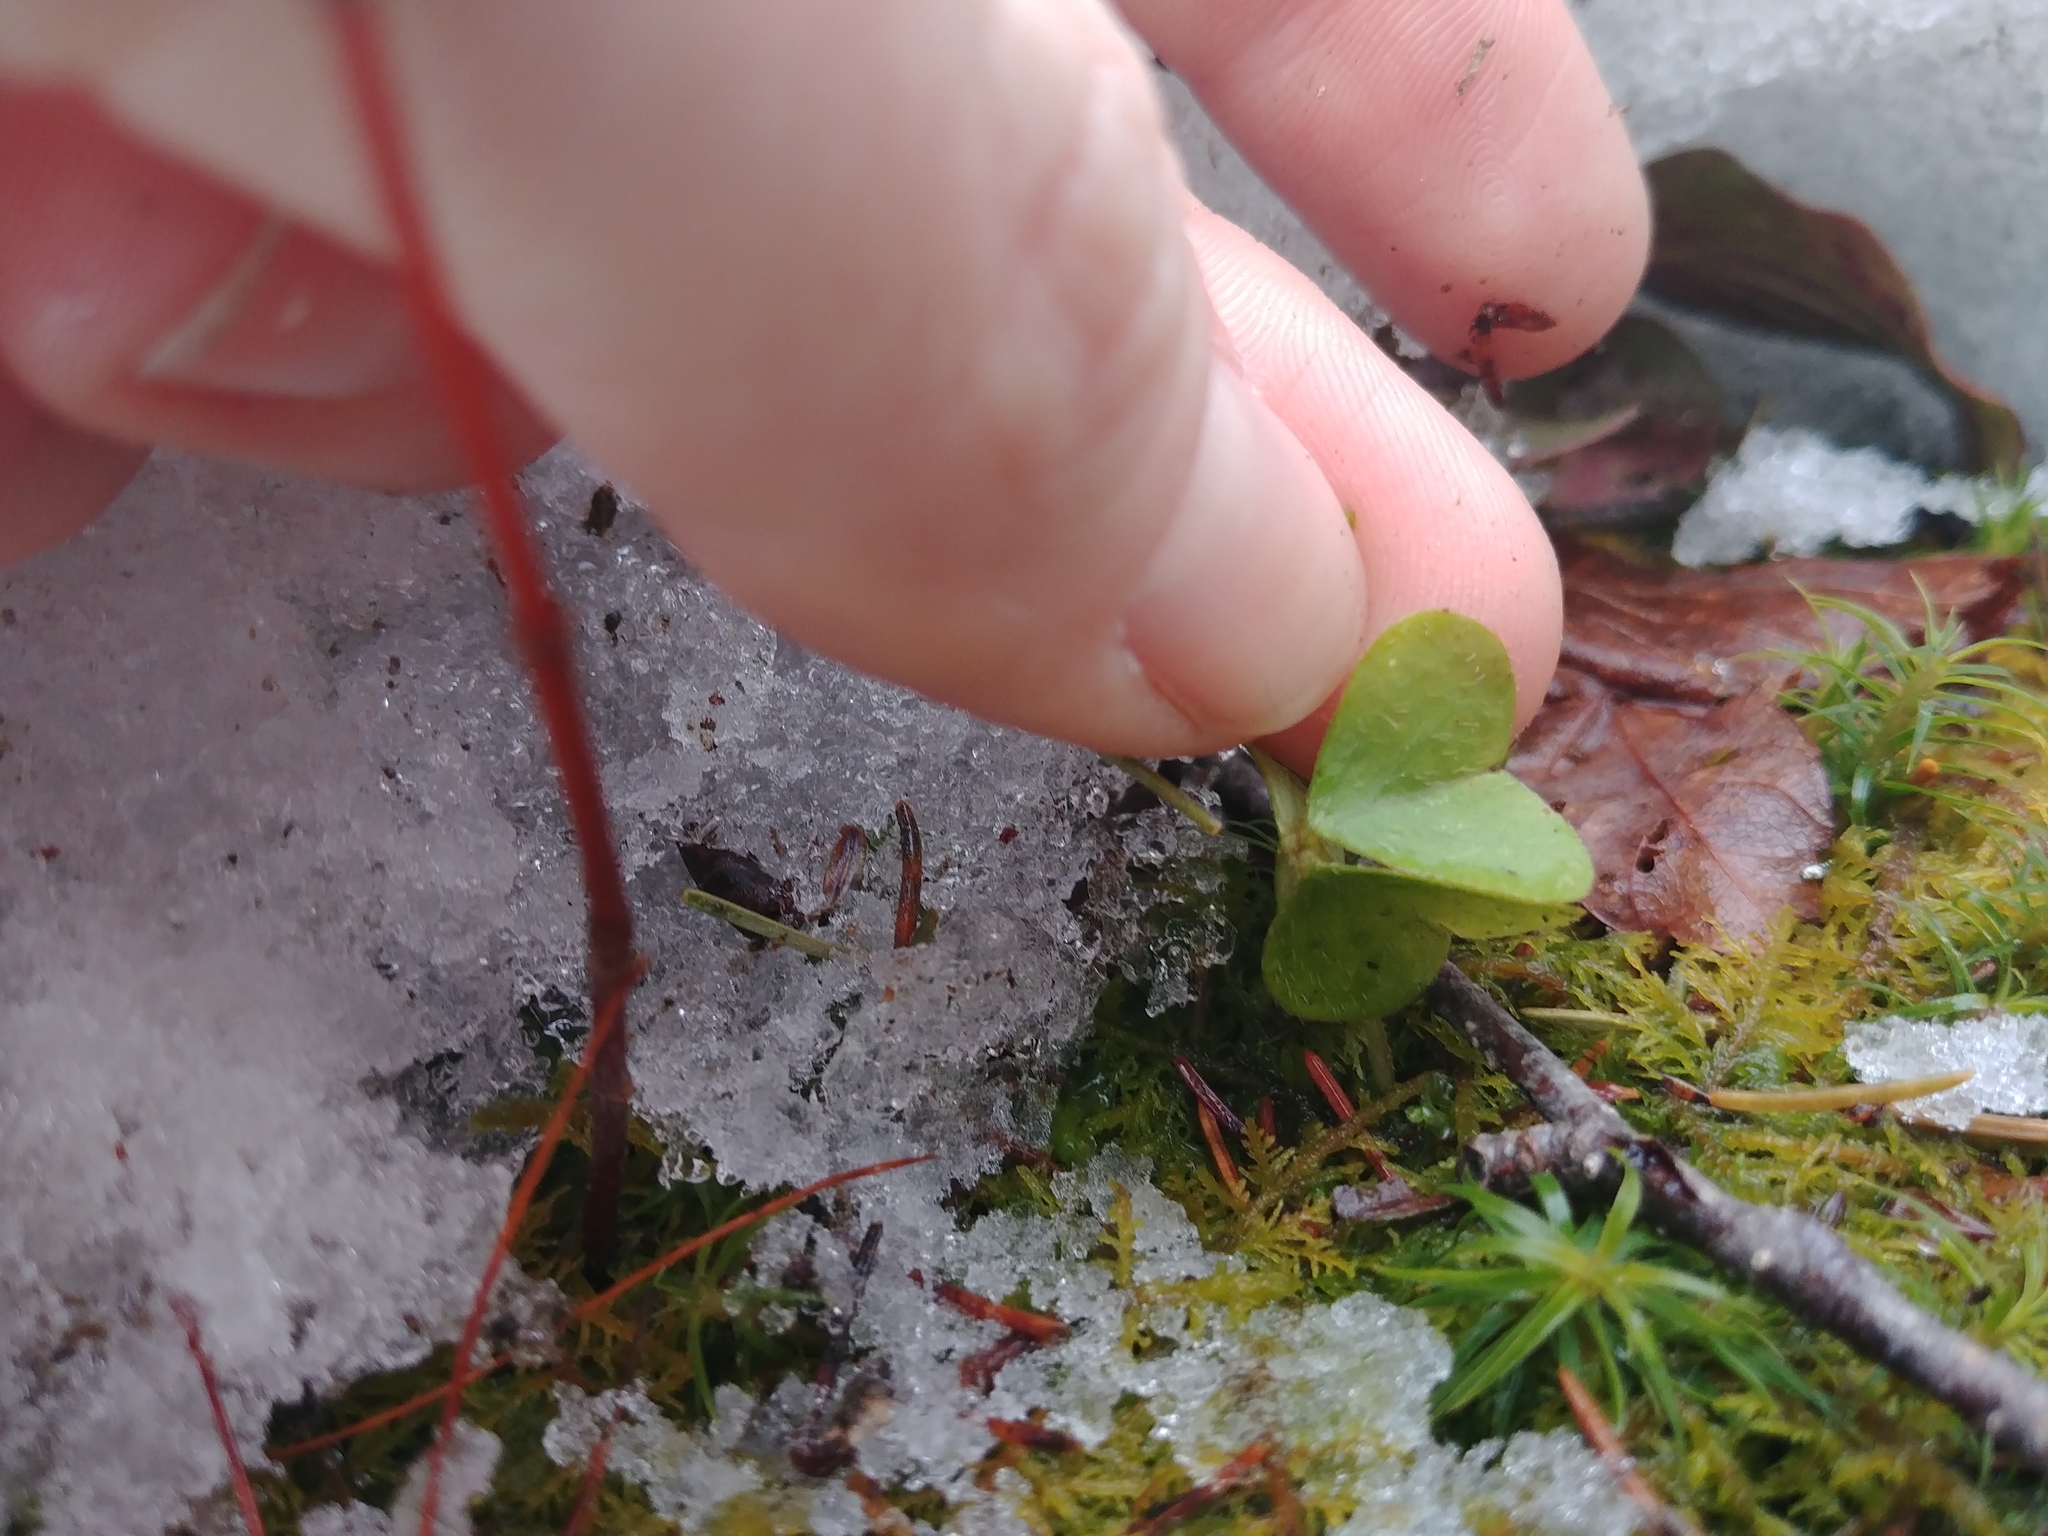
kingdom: Plantae
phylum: Tracheophyta
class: Magnoliopsida
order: Oxalidales
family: Oxalidaceae
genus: Oxalis
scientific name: Oxalis montana
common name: American wood-sorrel
